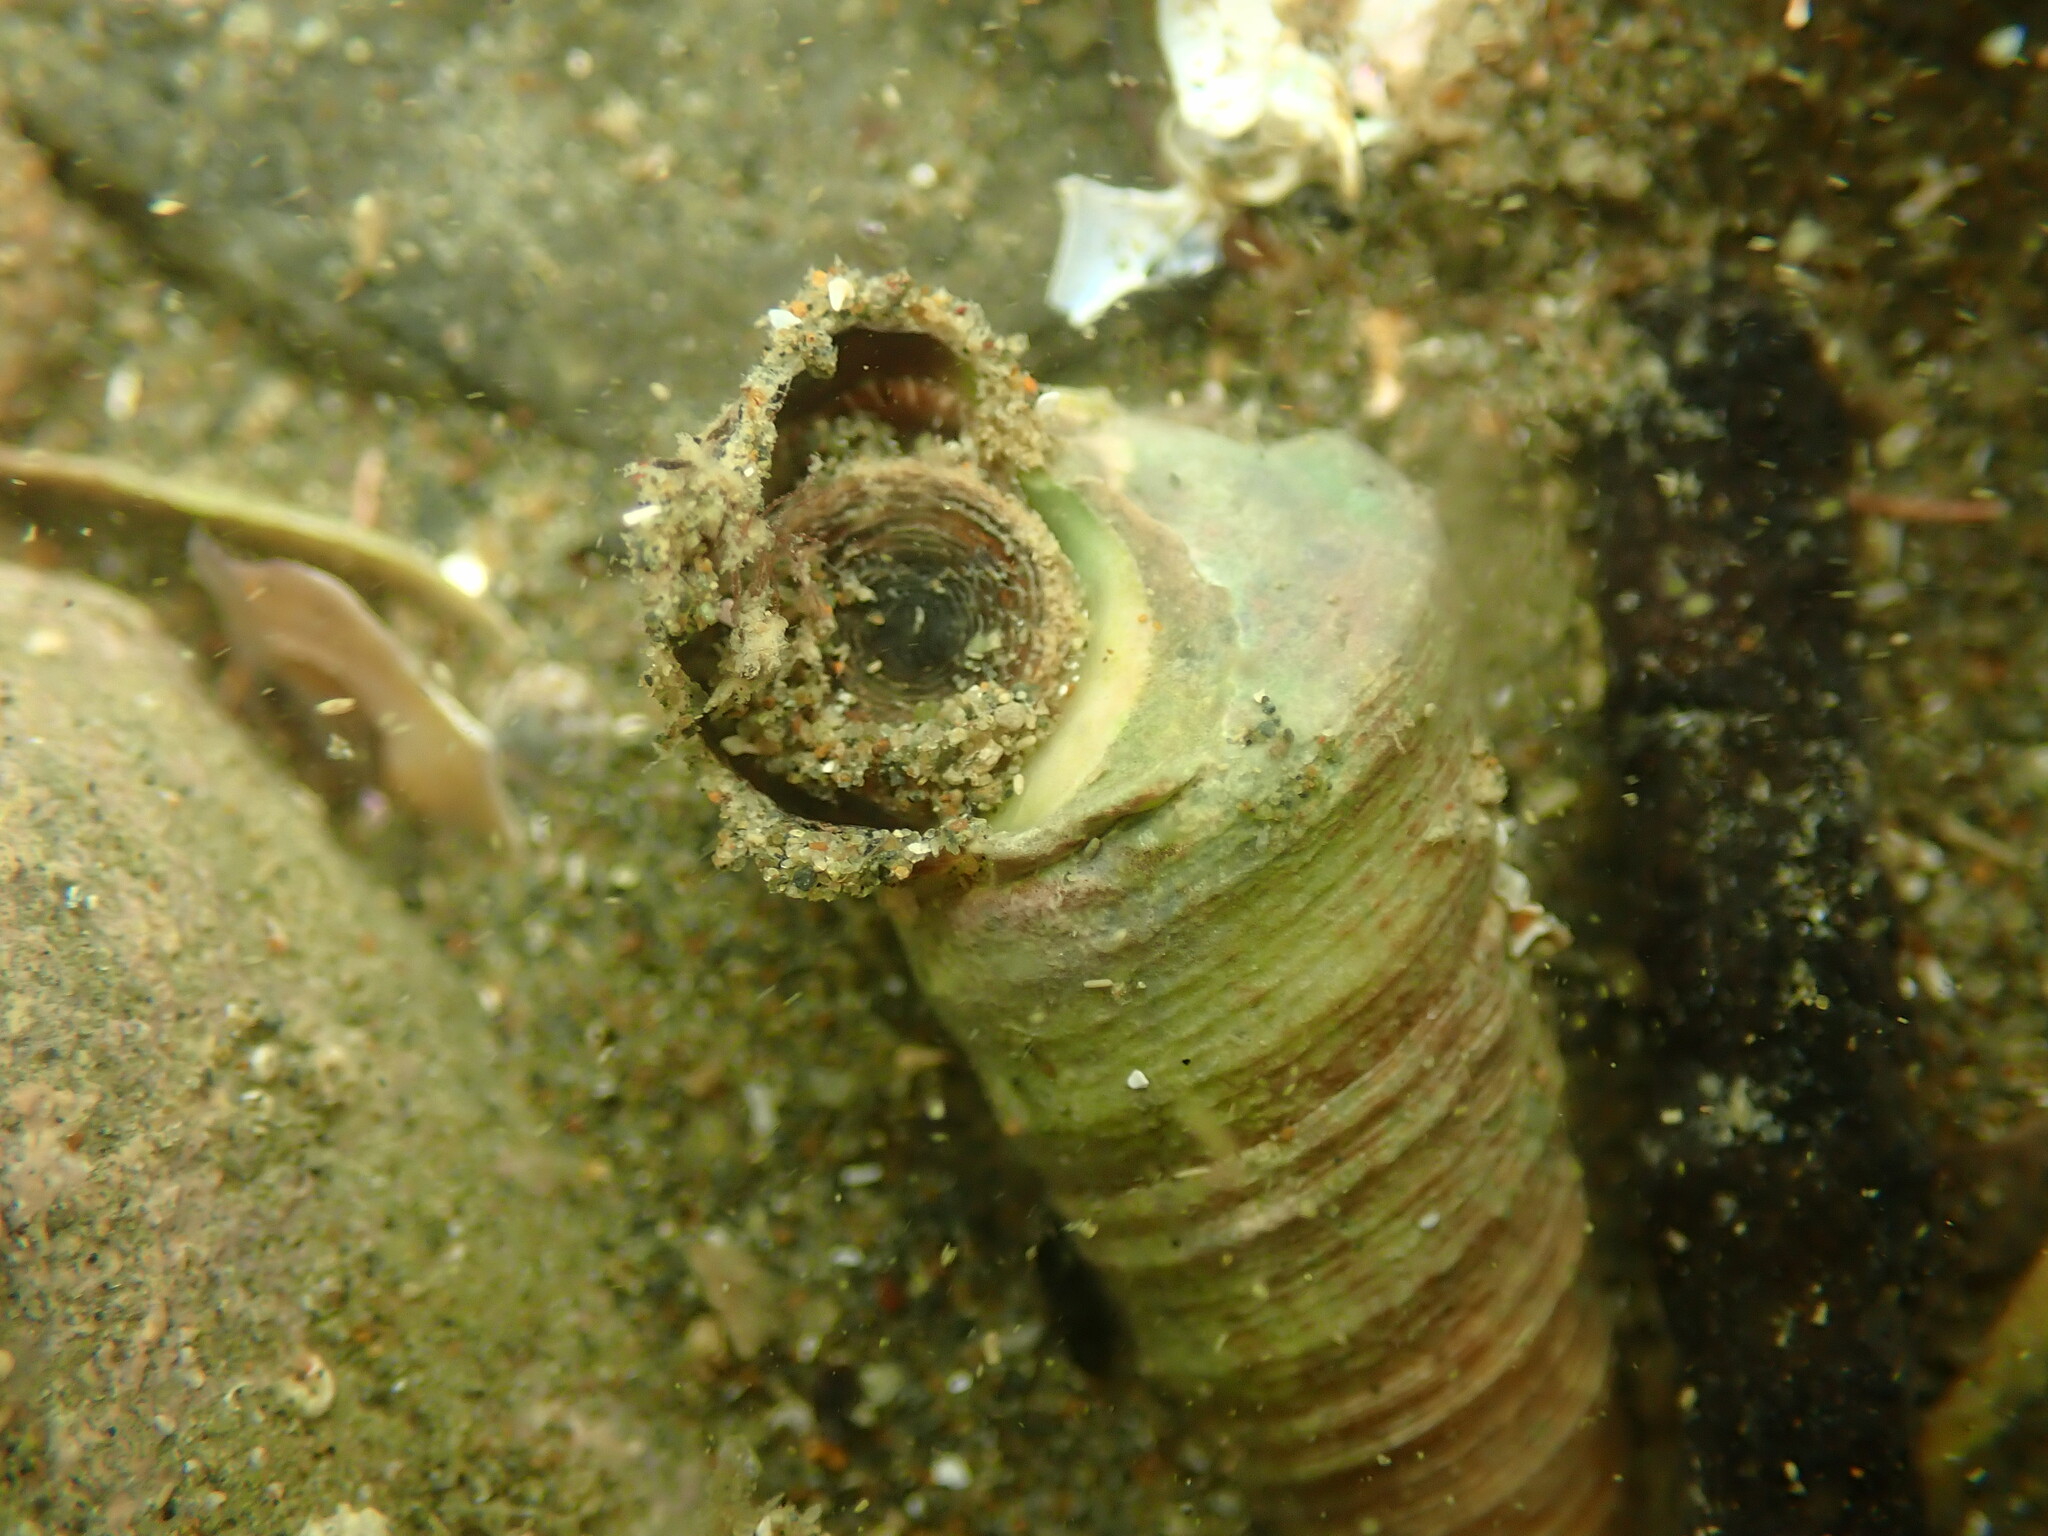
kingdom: Animalia
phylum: Mollusca
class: Gastropoda
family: Turritellidae
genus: Maoricolpus
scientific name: Maoricolpus roseus
